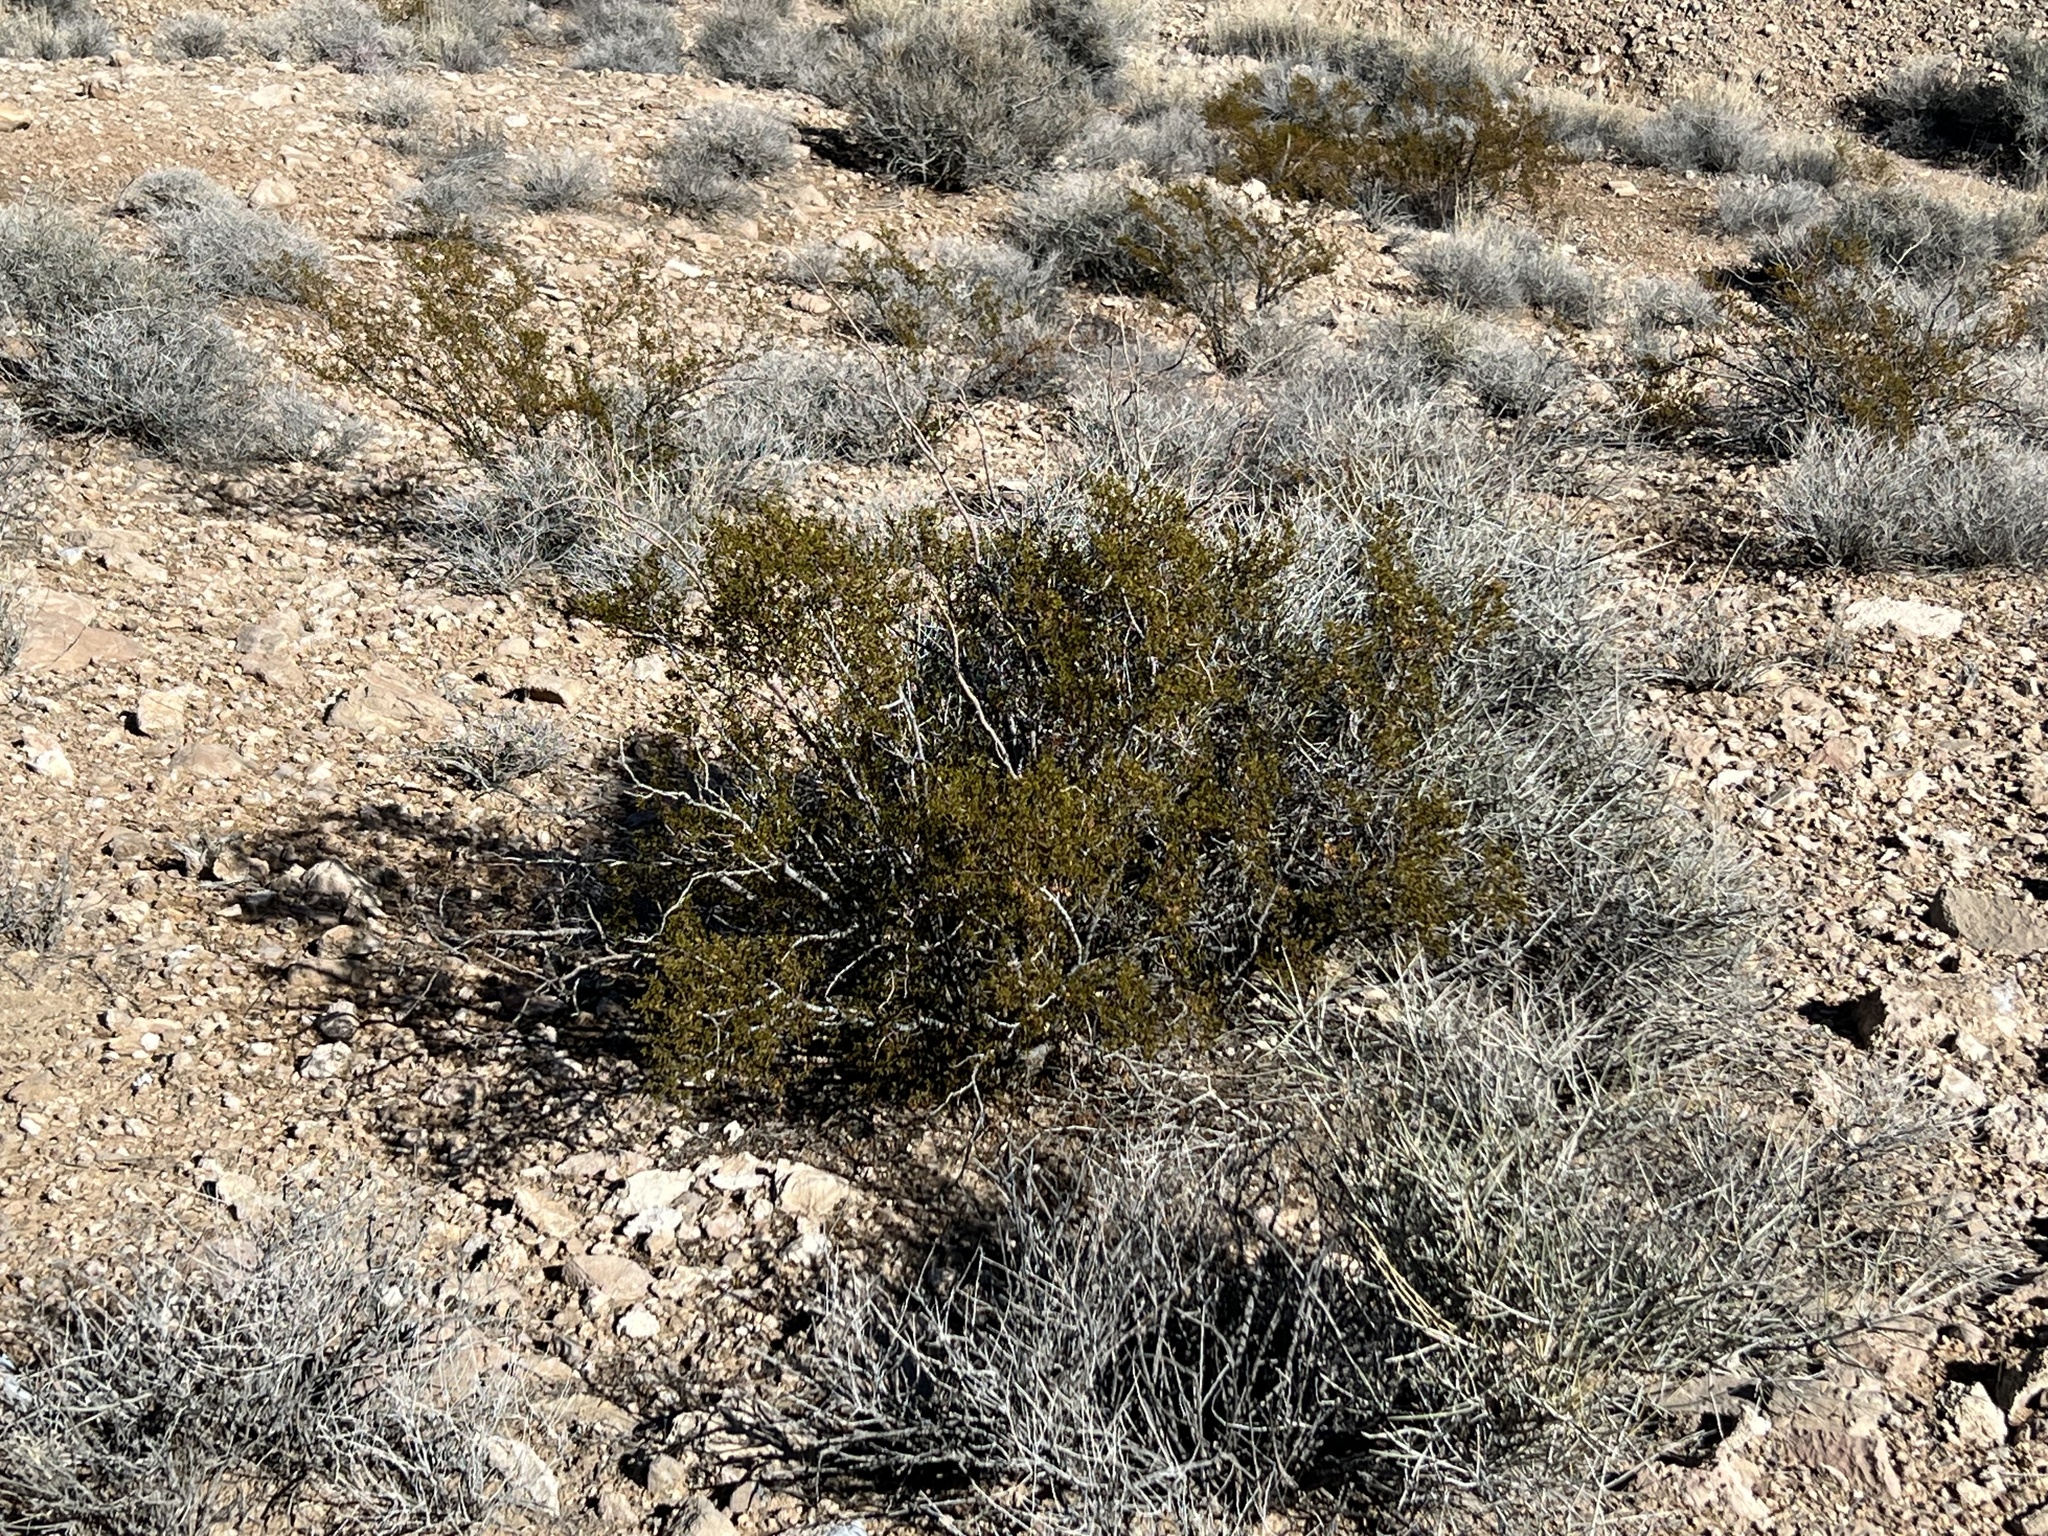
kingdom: Plantae
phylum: Tracheophyta
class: Magnoliopsida
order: Zygophyllales
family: Zygophyllaceae
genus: Larrea
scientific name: Larrea tridentata
